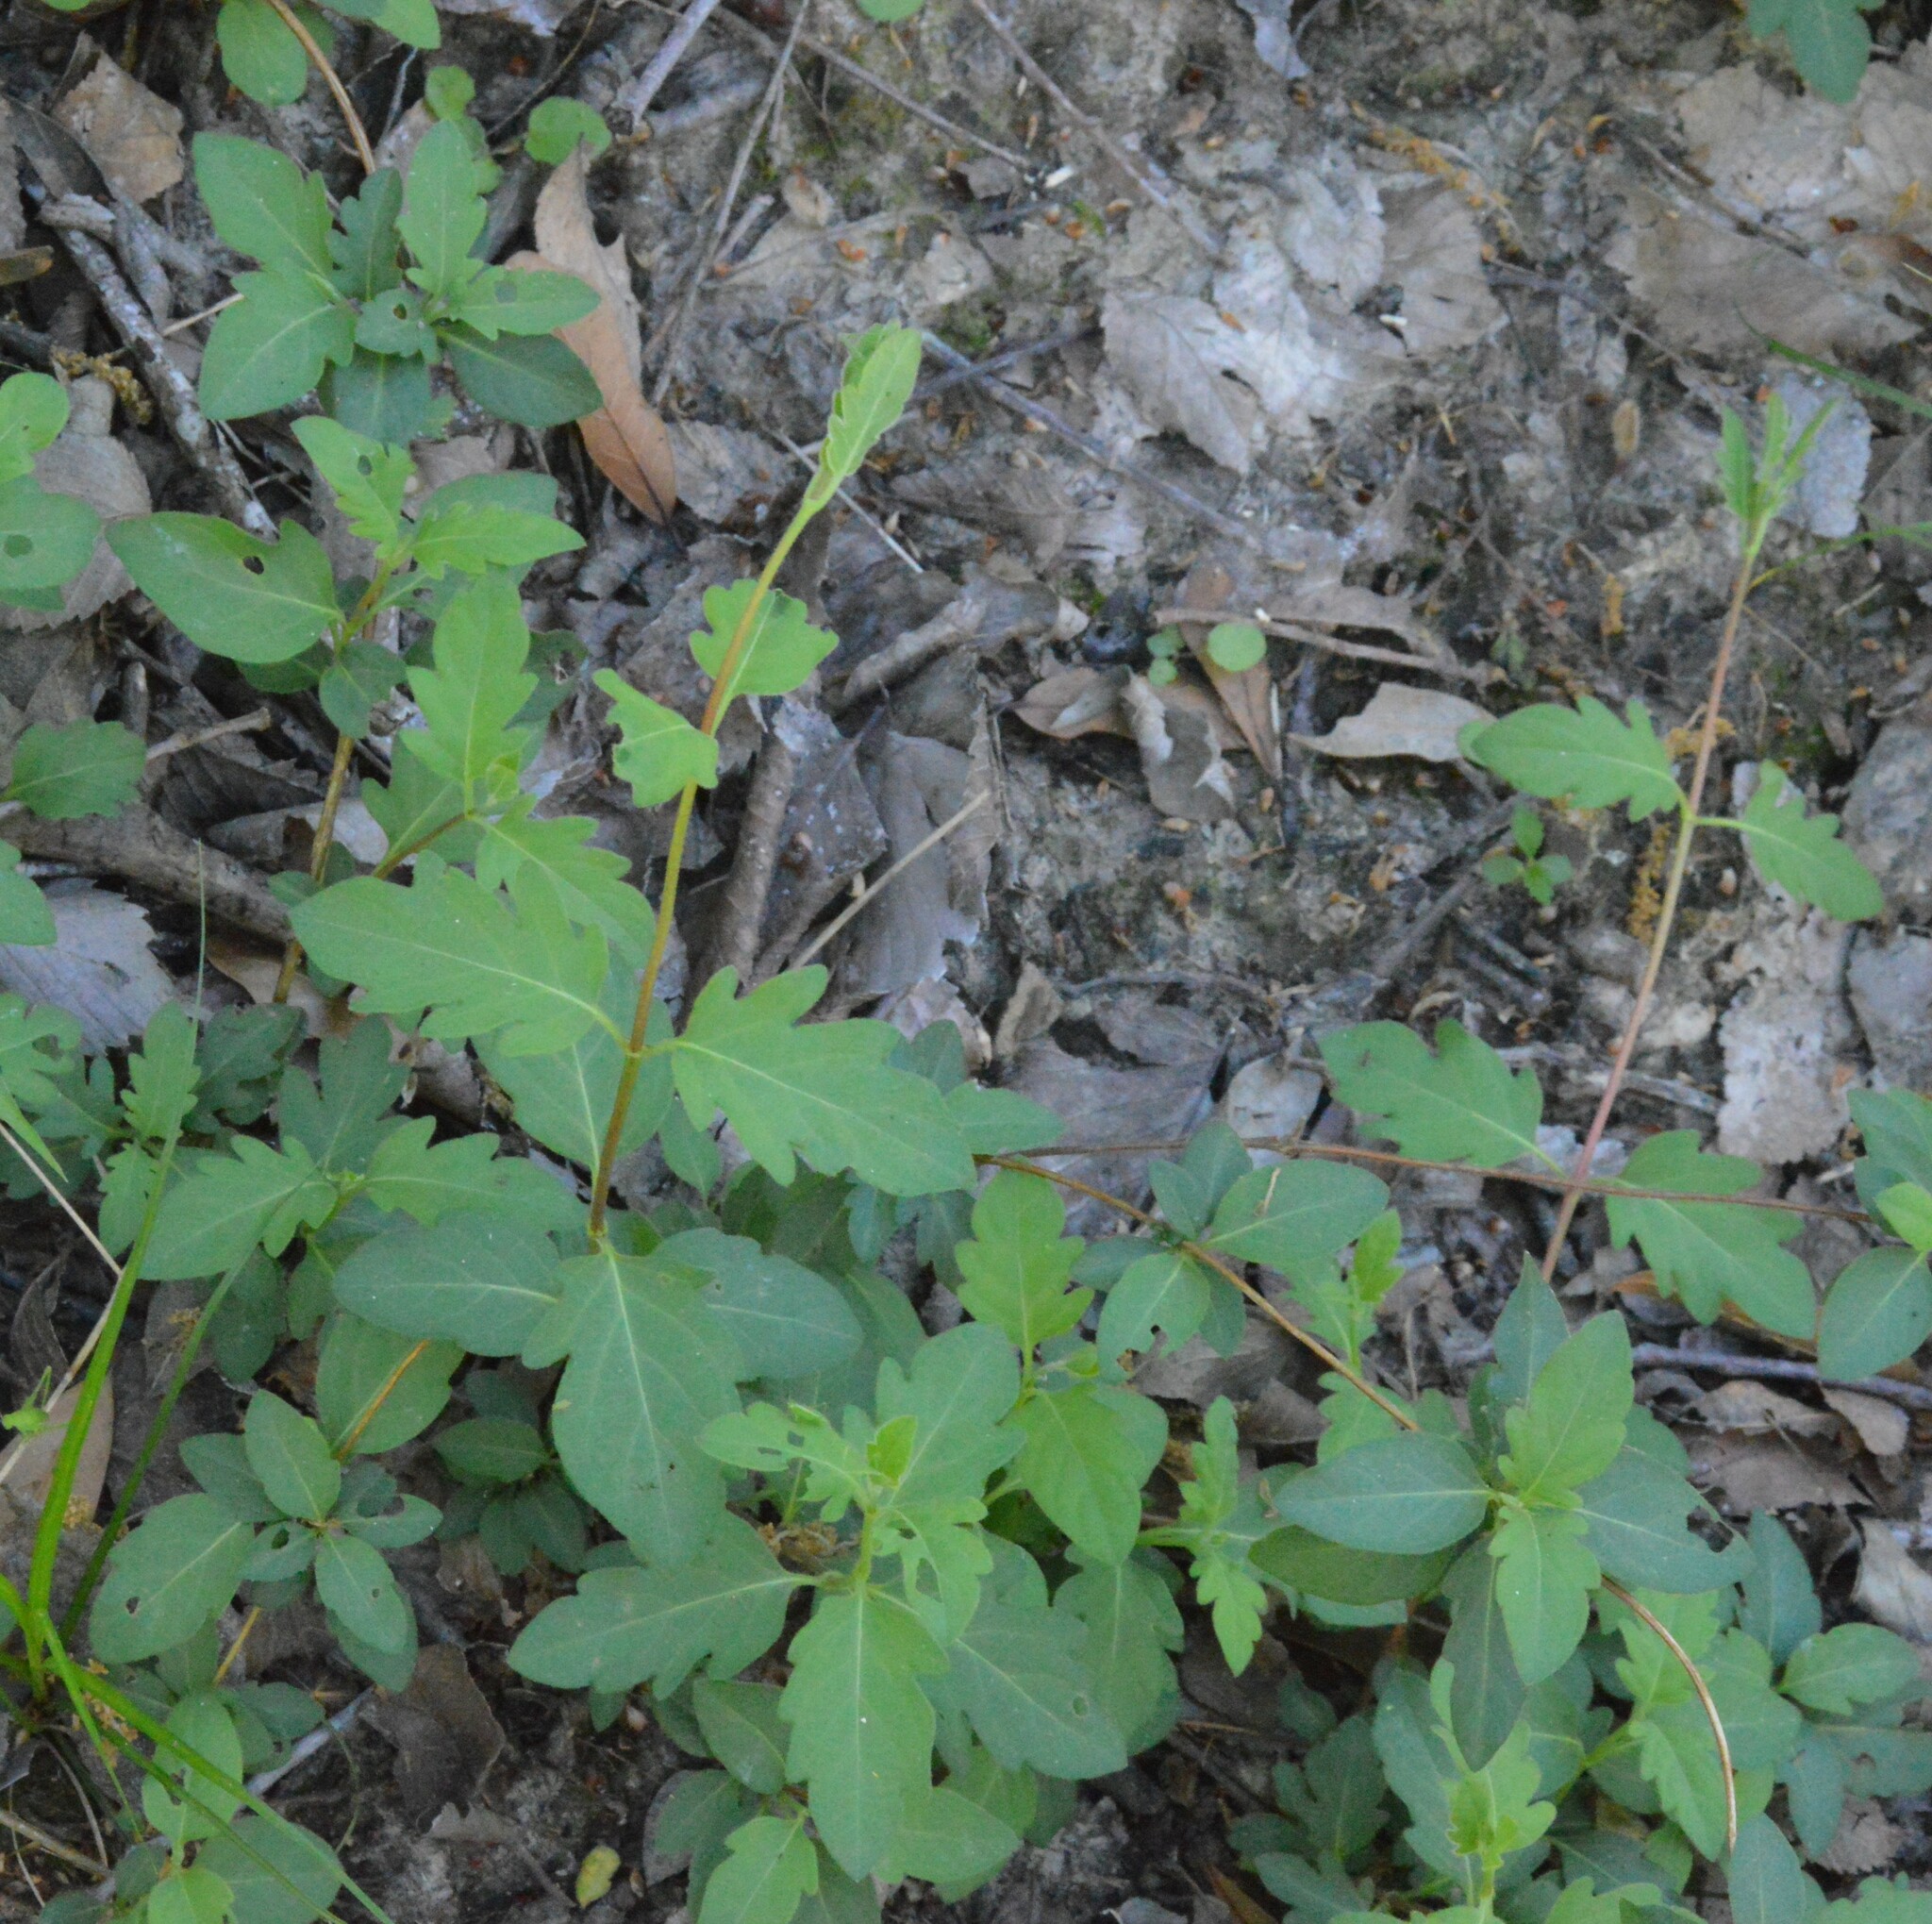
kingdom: Plantae
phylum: Tracheophyta
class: Magnoliopsida
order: Dipsacales
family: Caprifoliaceae
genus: Lonicera
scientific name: Lonicera japonica
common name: Japanese honeysuckle
